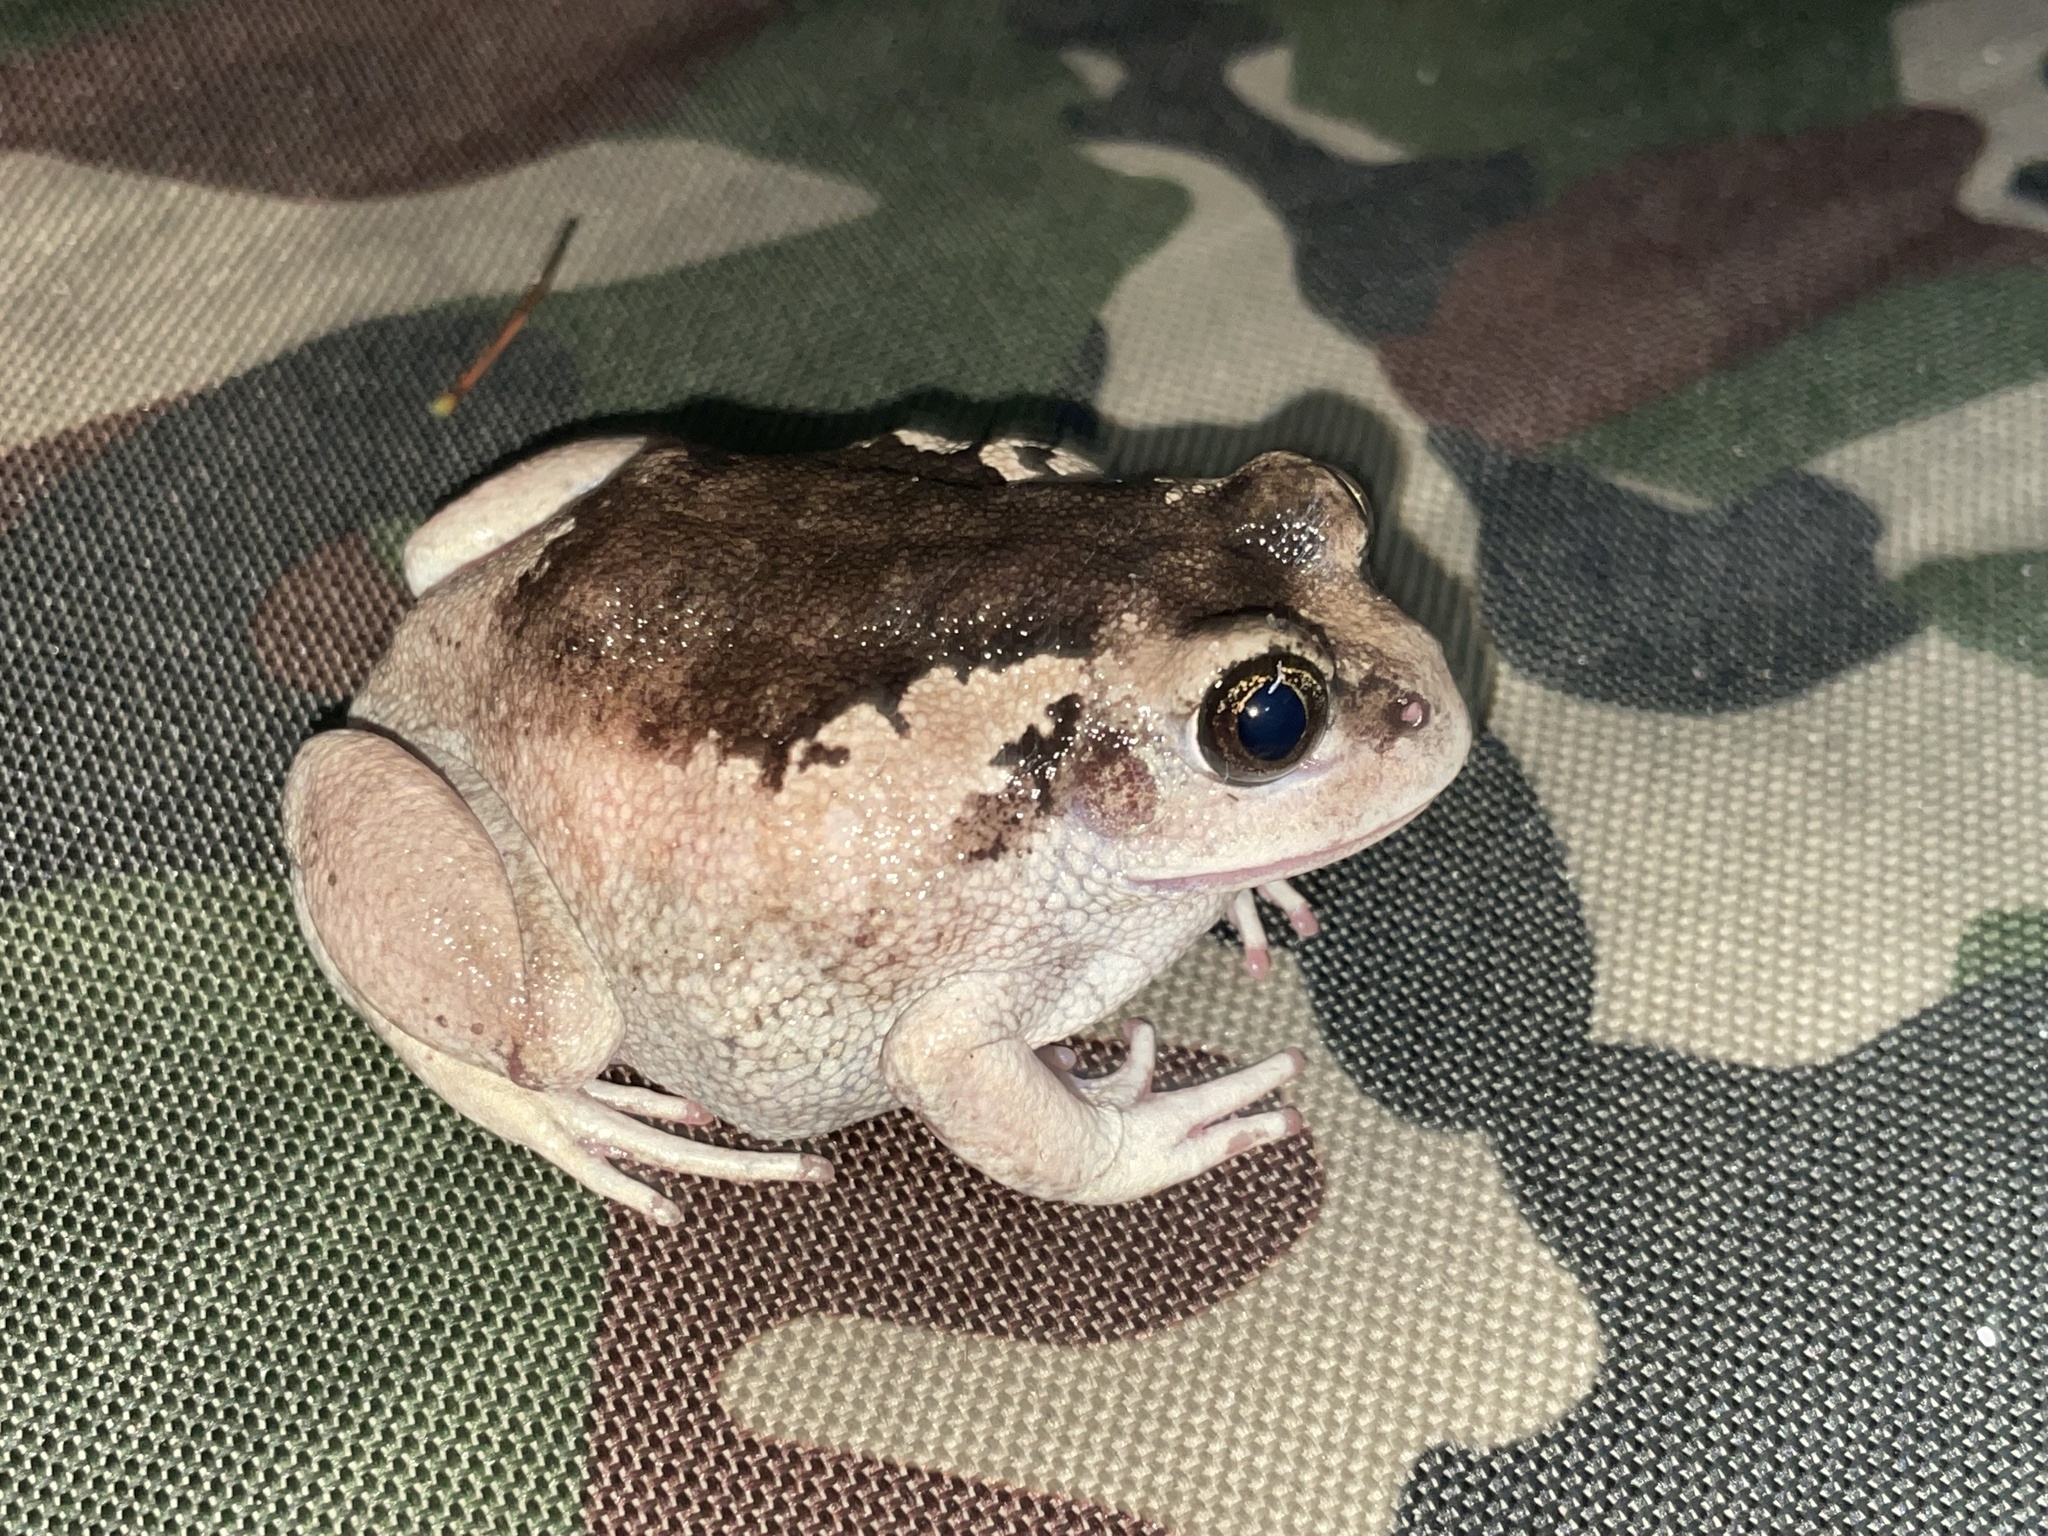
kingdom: Animalia
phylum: Chordata
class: Amphibia
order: Anura
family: Arthroleptidae
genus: Leptopelis
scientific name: Leptopelis bocagii
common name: Bocage's frog
